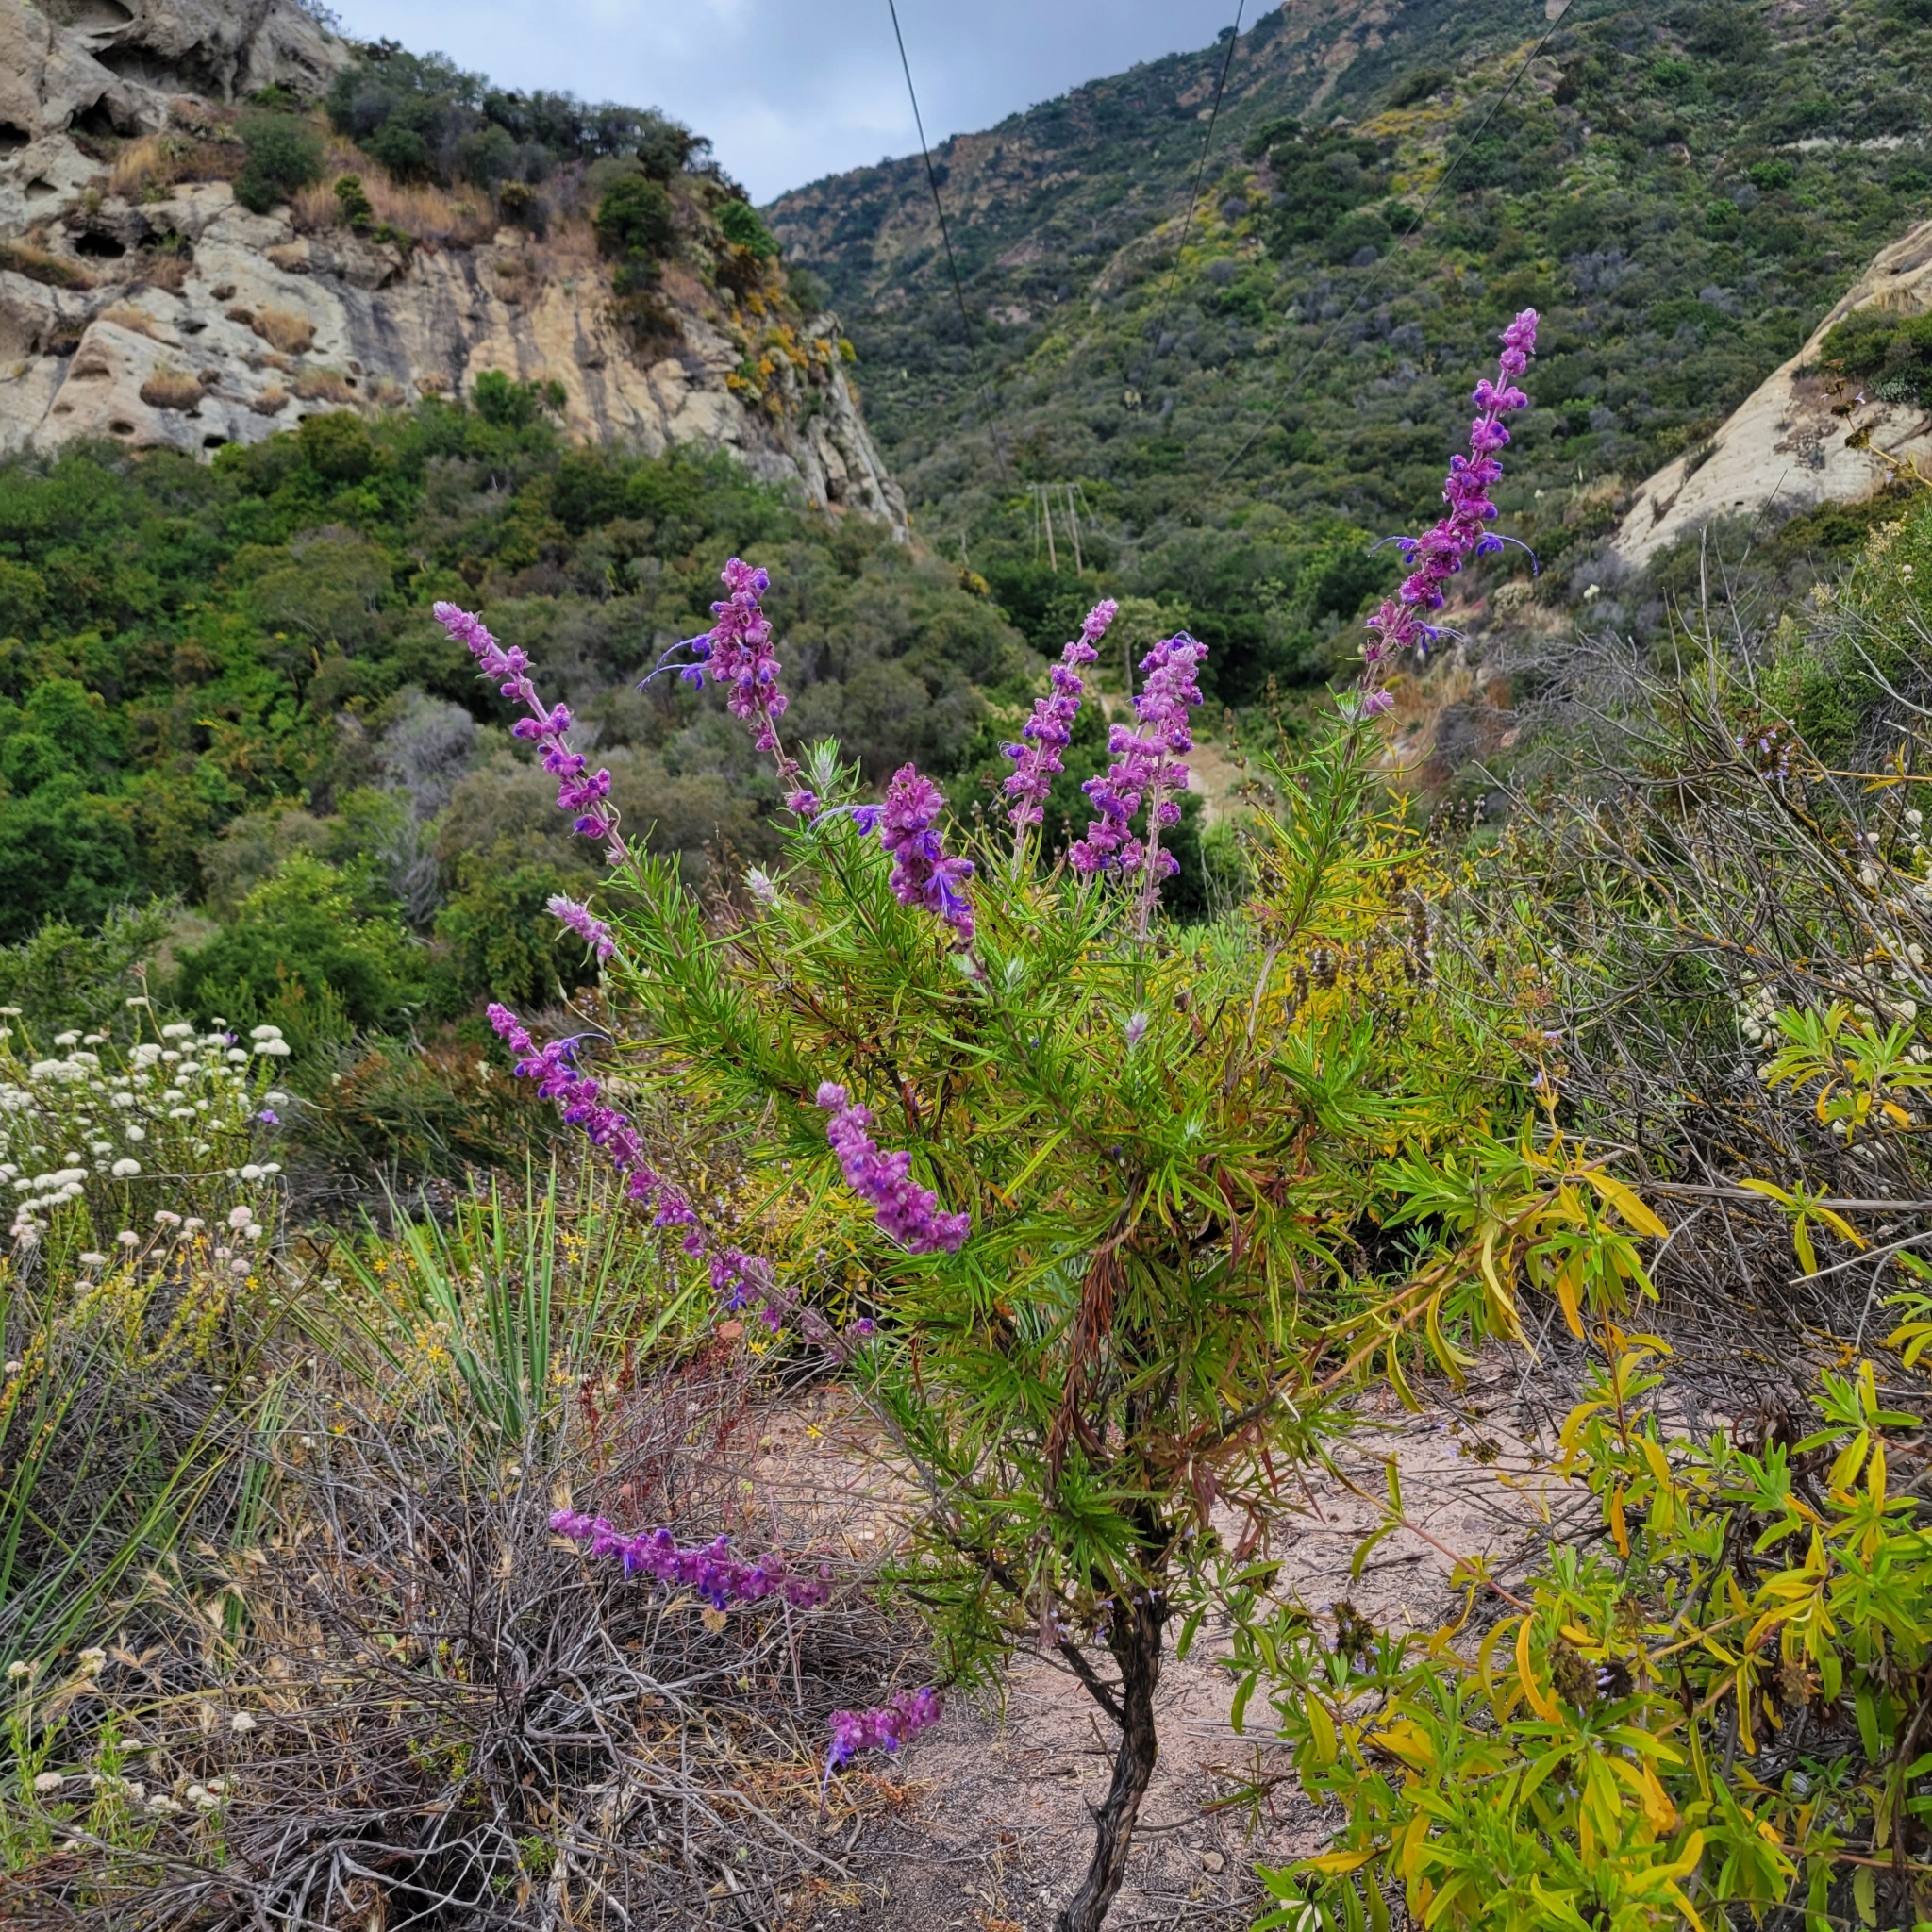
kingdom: Plantae
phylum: Tracheophyta
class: Magnoliopsida
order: Lamiales
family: Lamiaceae
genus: Trichostema
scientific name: Trichostema lanatum
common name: Woolly bluecurls
